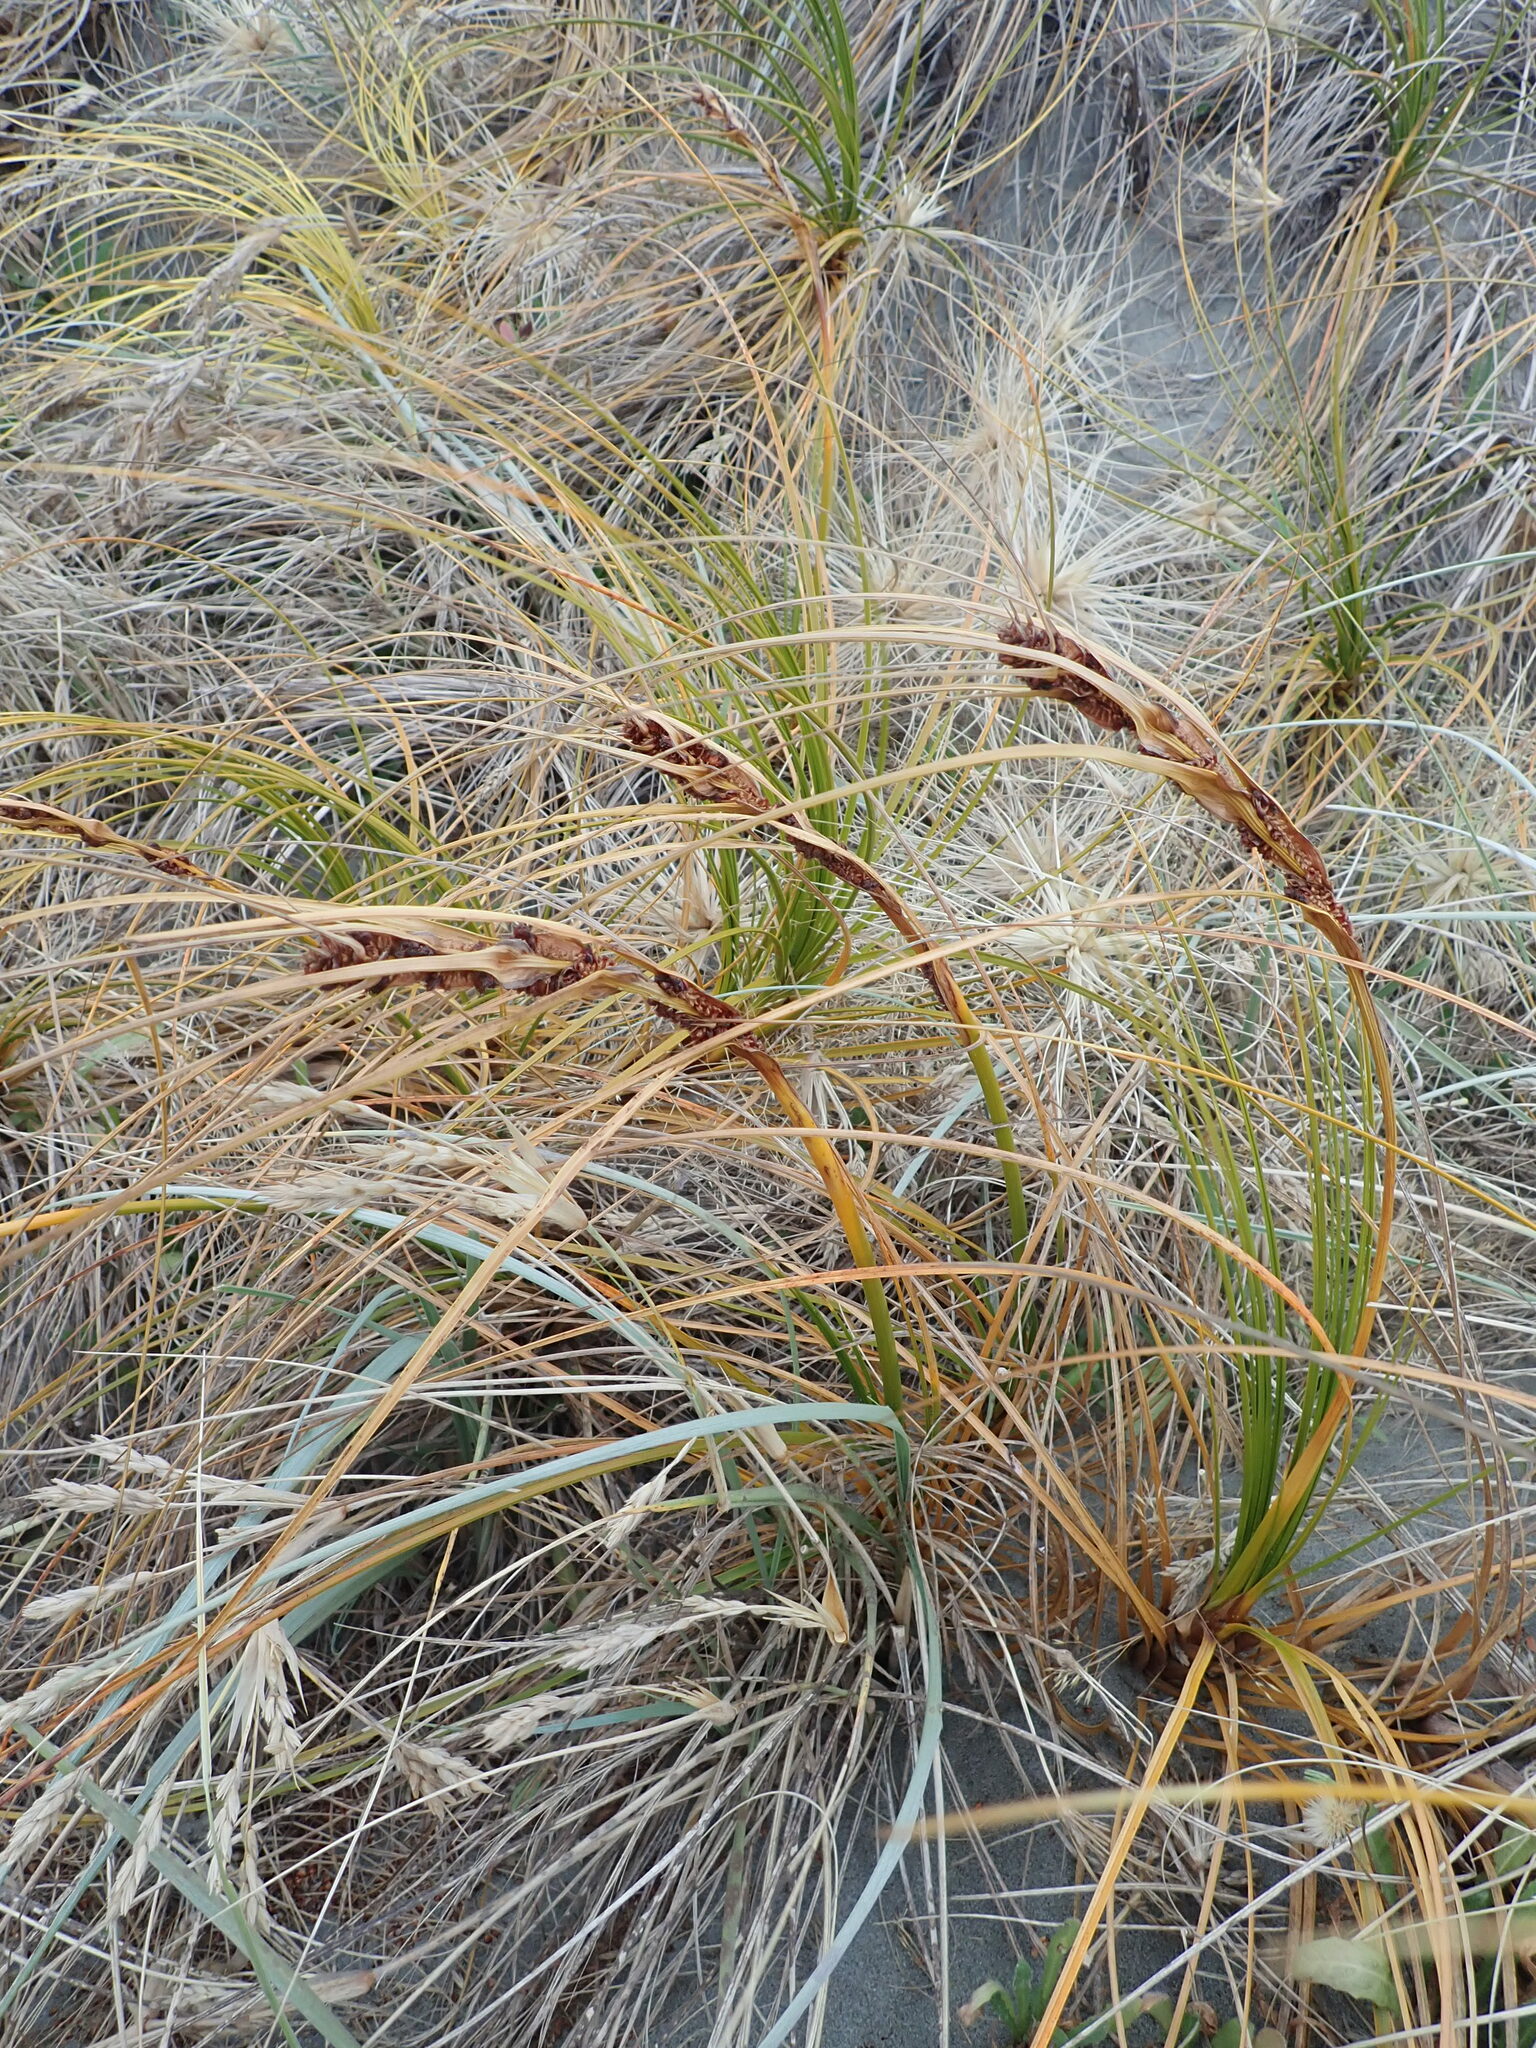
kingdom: Plantae
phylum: Tracheophyta
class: Liliopsida
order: Poales
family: Cyperaceae
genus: Ficinia
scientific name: Ficinia spiralis
